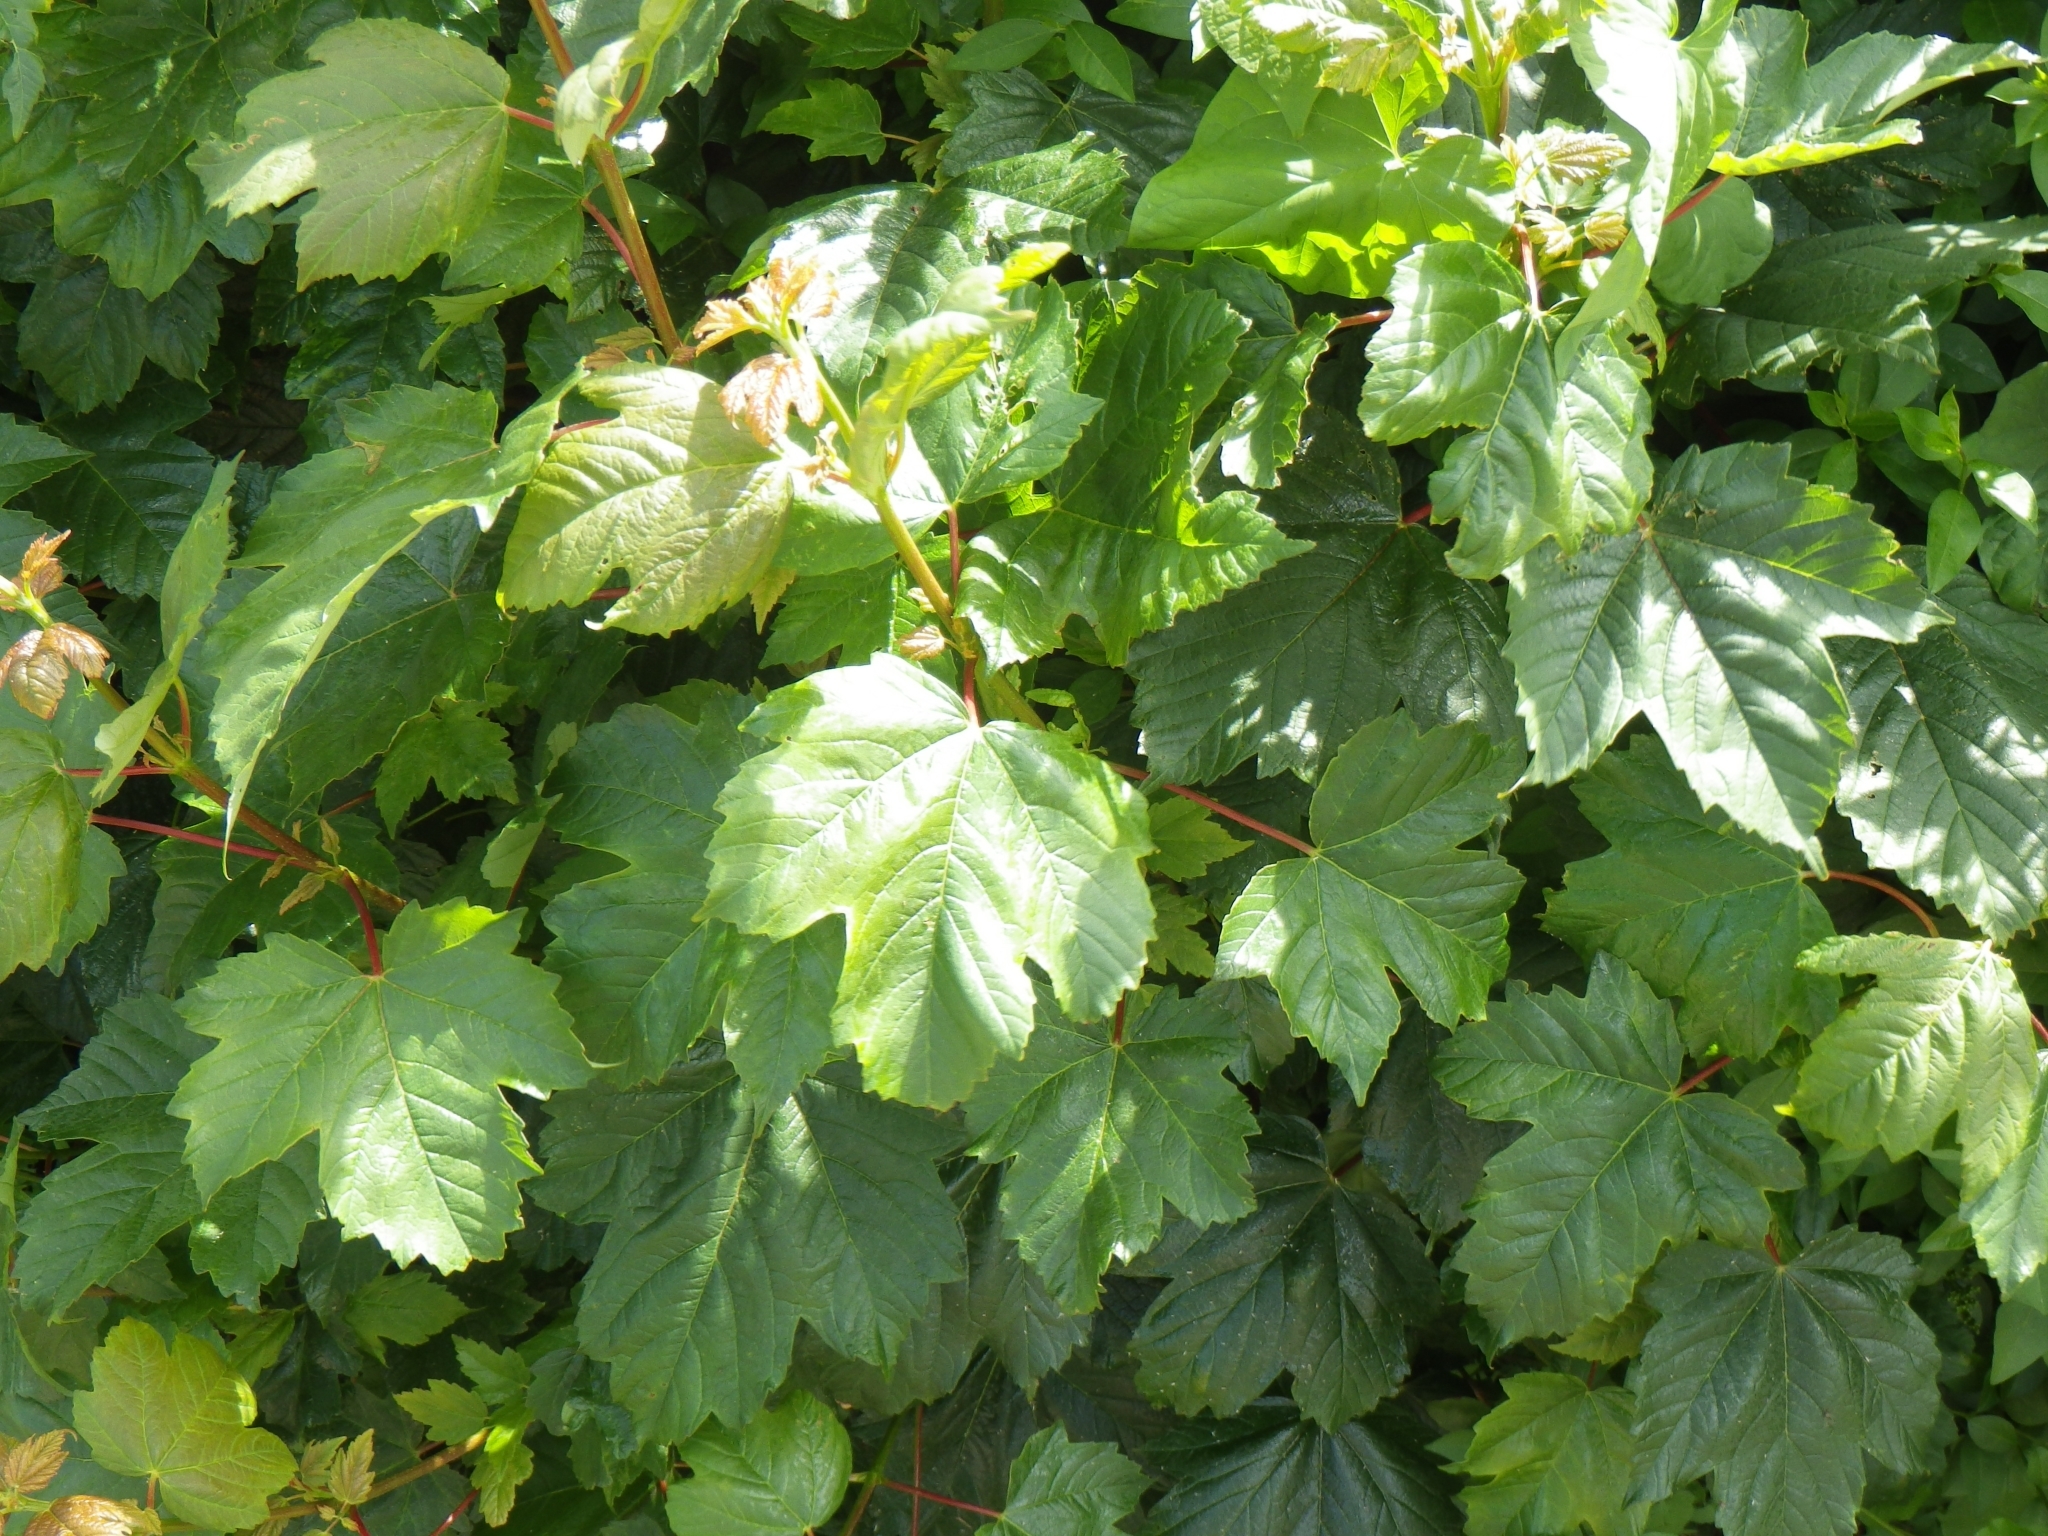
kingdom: Plantae
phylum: Tracheophyta
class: Magnoliopsida
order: Sapindales
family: Sapindaceae
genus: Acer
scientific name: Acer pseudoplatanus
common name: Sycamore
